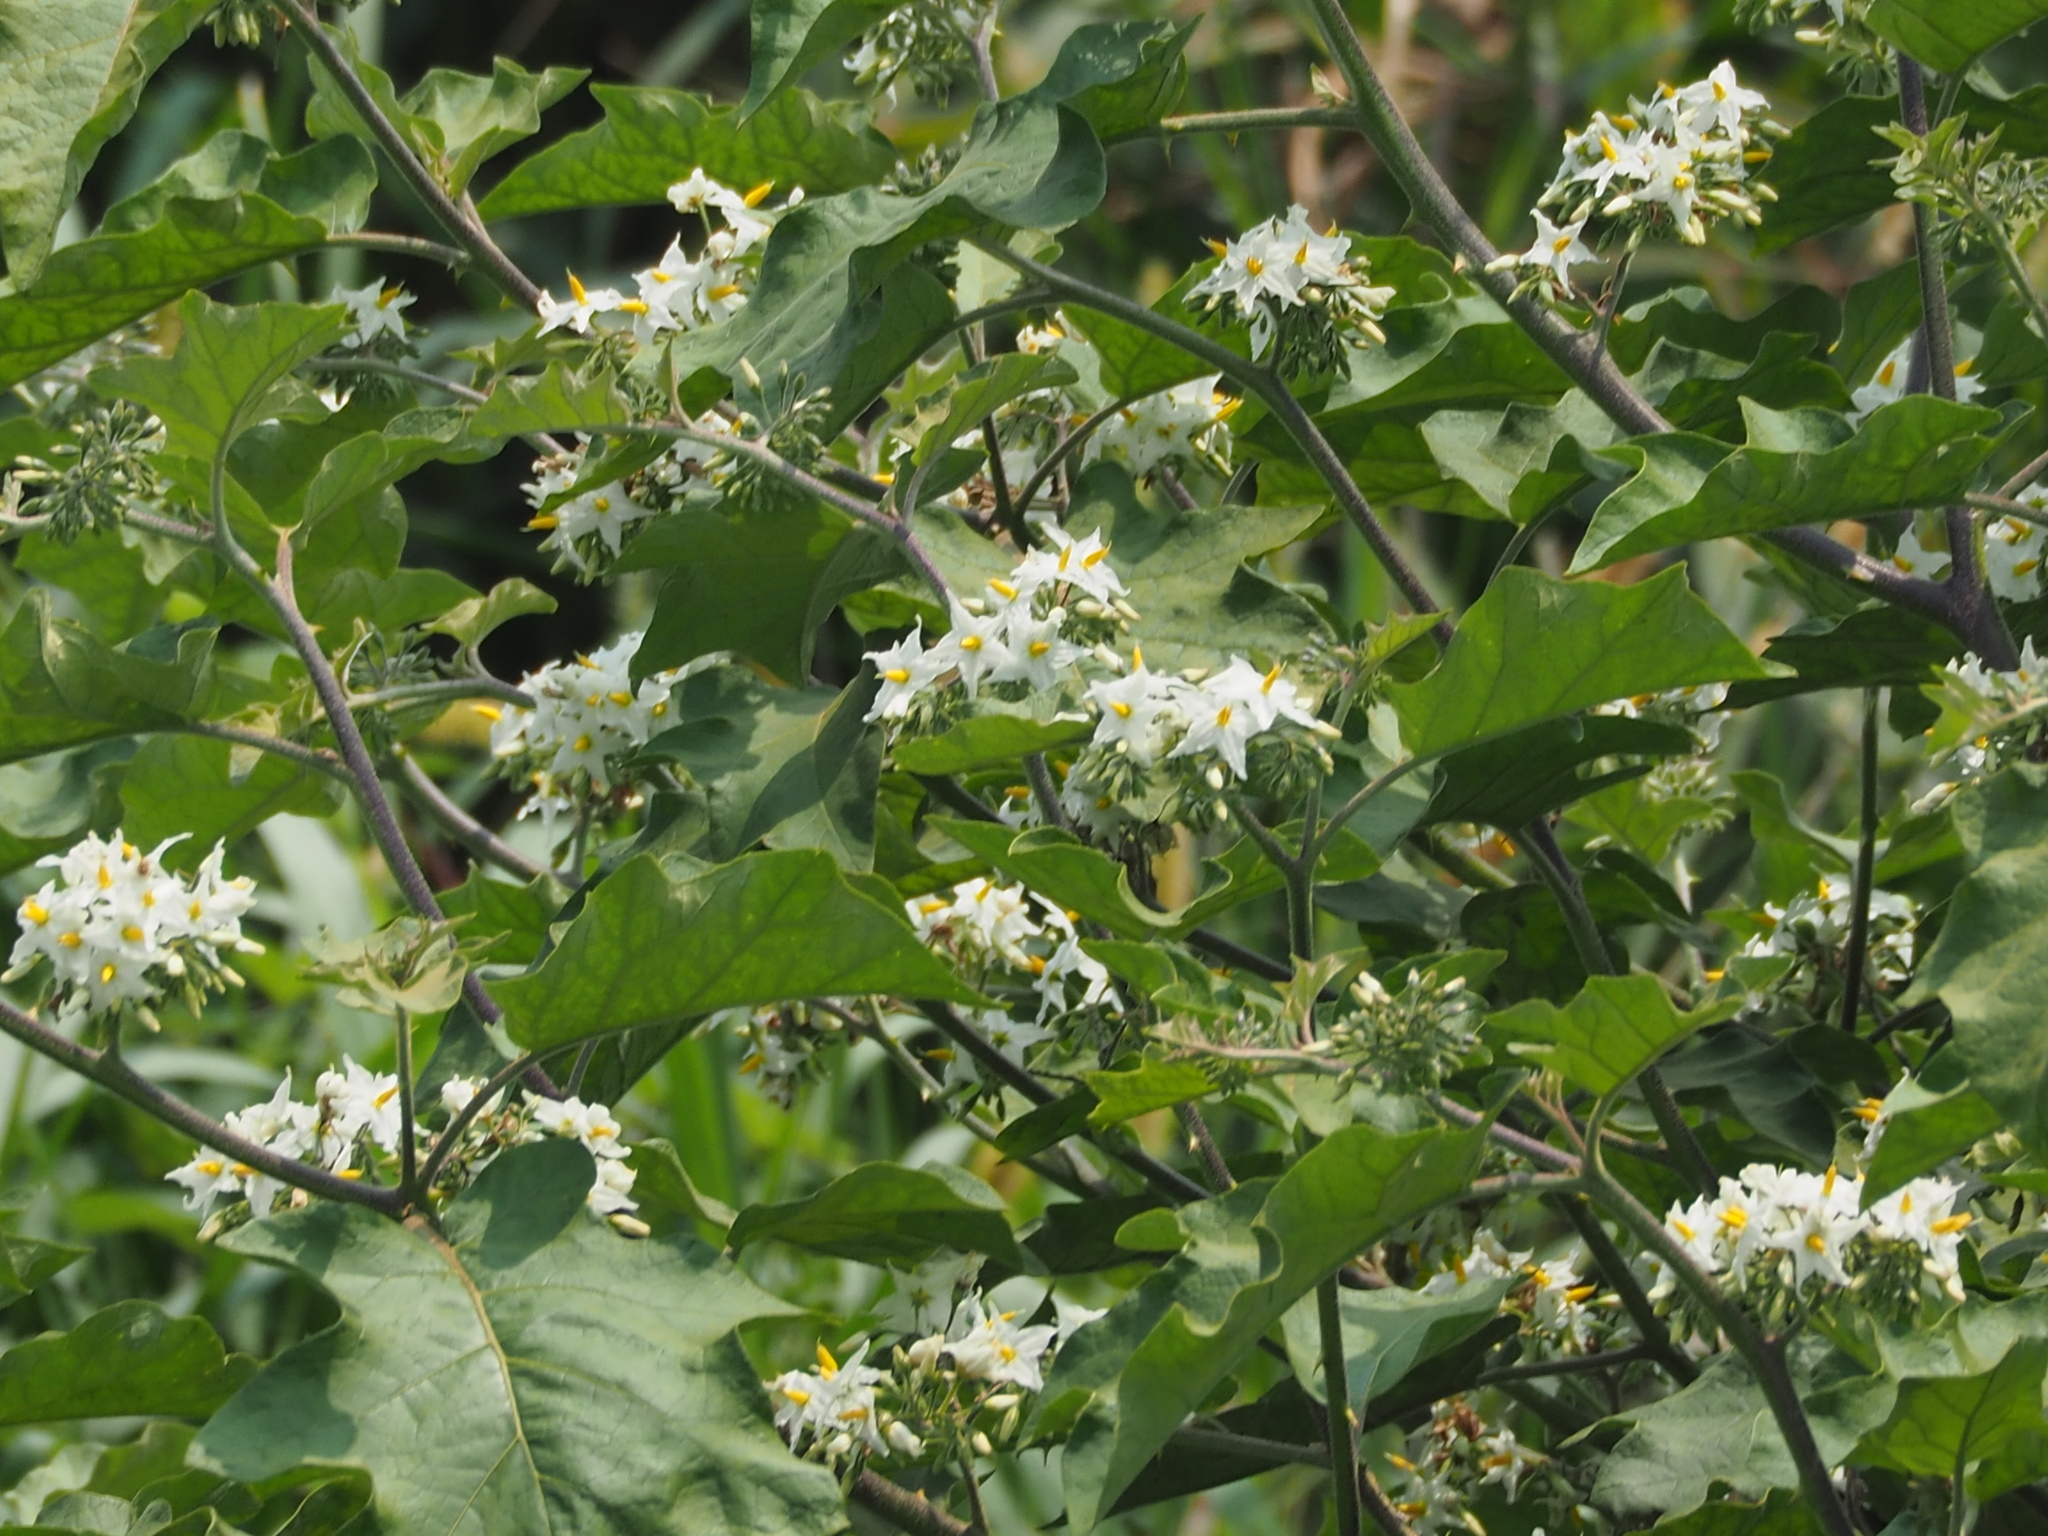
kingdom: Plantae
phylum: Tracheophyta
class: Magnoliopsida
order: Solanales
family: Solanaceae
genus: Solanum
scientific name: Solanum torvum
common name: Turkey berry
